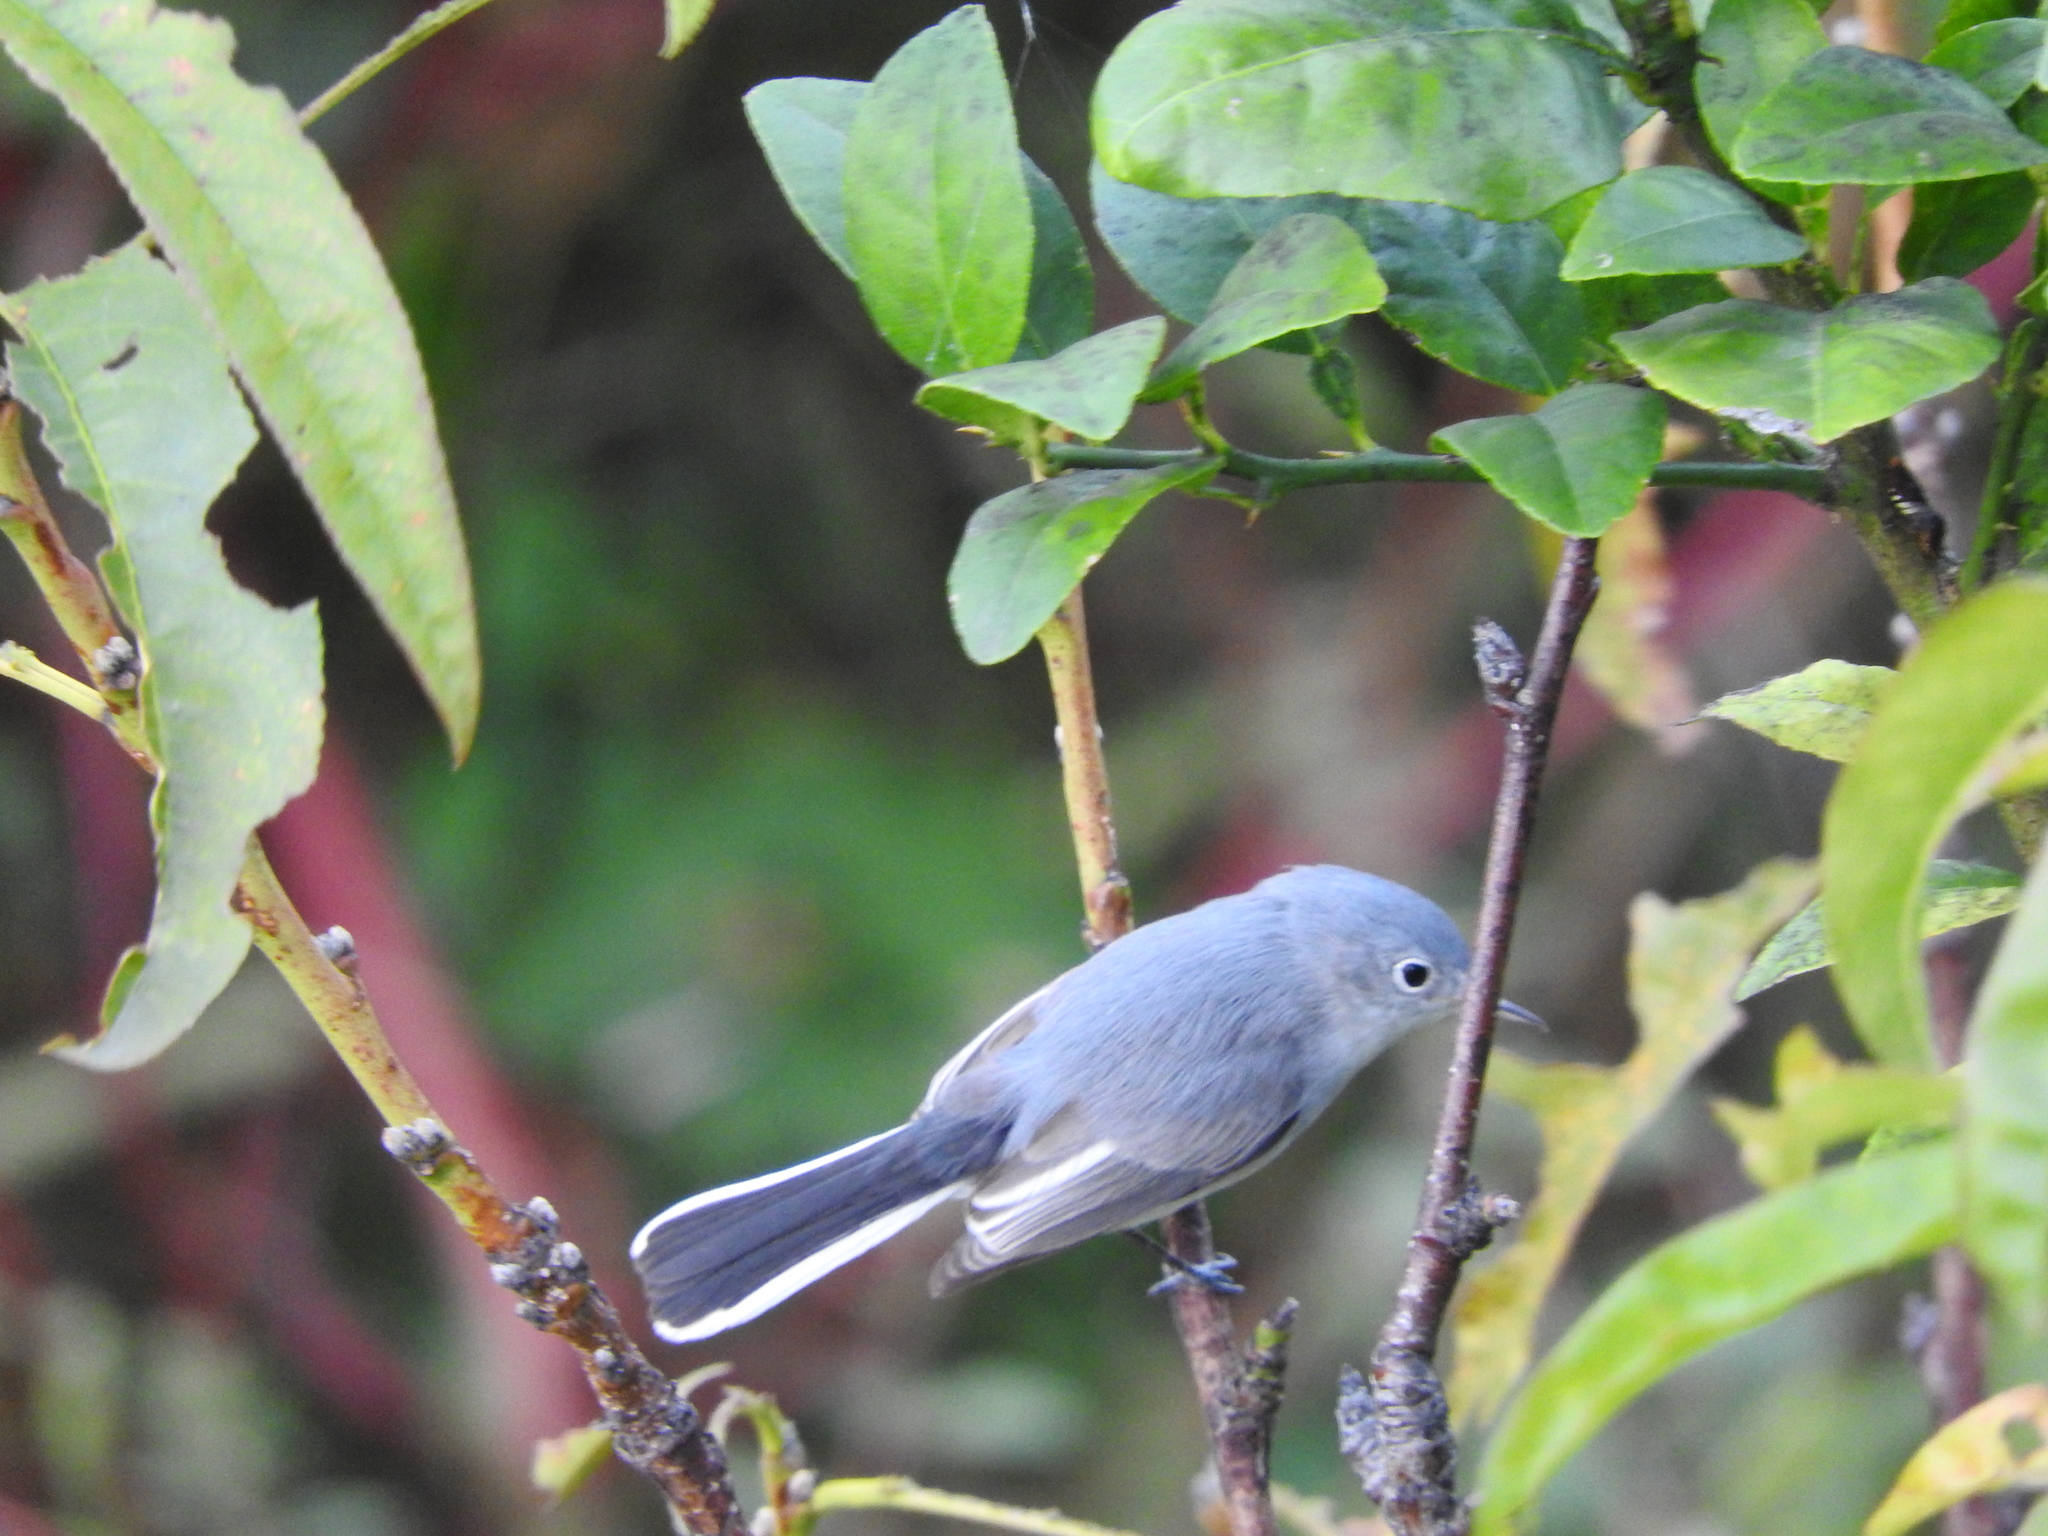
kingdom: Animalia
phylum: Chordata
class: Aves
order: Passeriformes
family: Polioptilidae
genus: Polioptila
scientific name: Polioptila caerulea
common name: Blue-gray gnatcatcher
